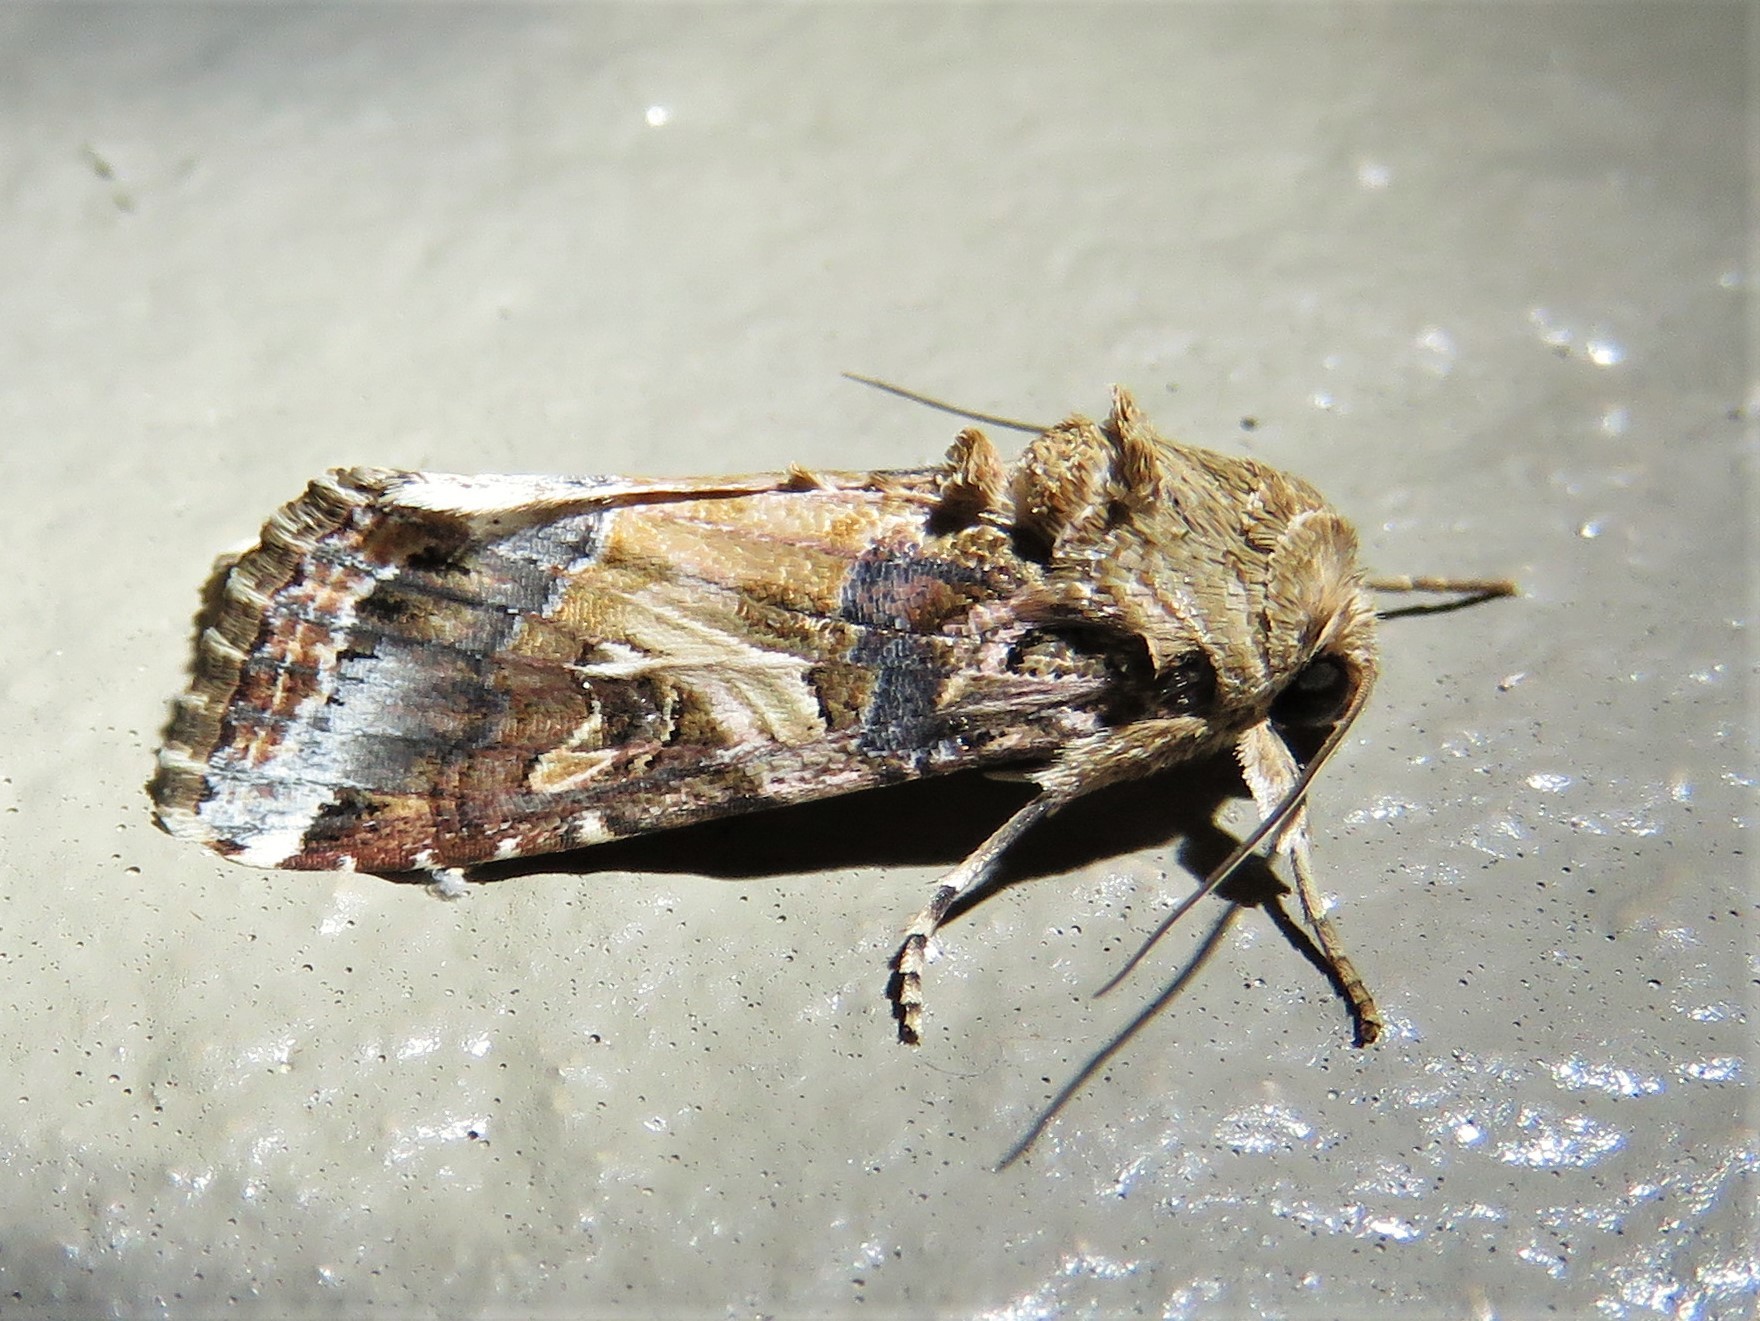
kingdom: Animalia
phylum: Arthropoda
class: Insecta
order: Lepidoptera
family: Noctuidae
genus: Spodoptera
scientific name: Spodoptera ornithogalli
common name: Yellow-striped armyworm
